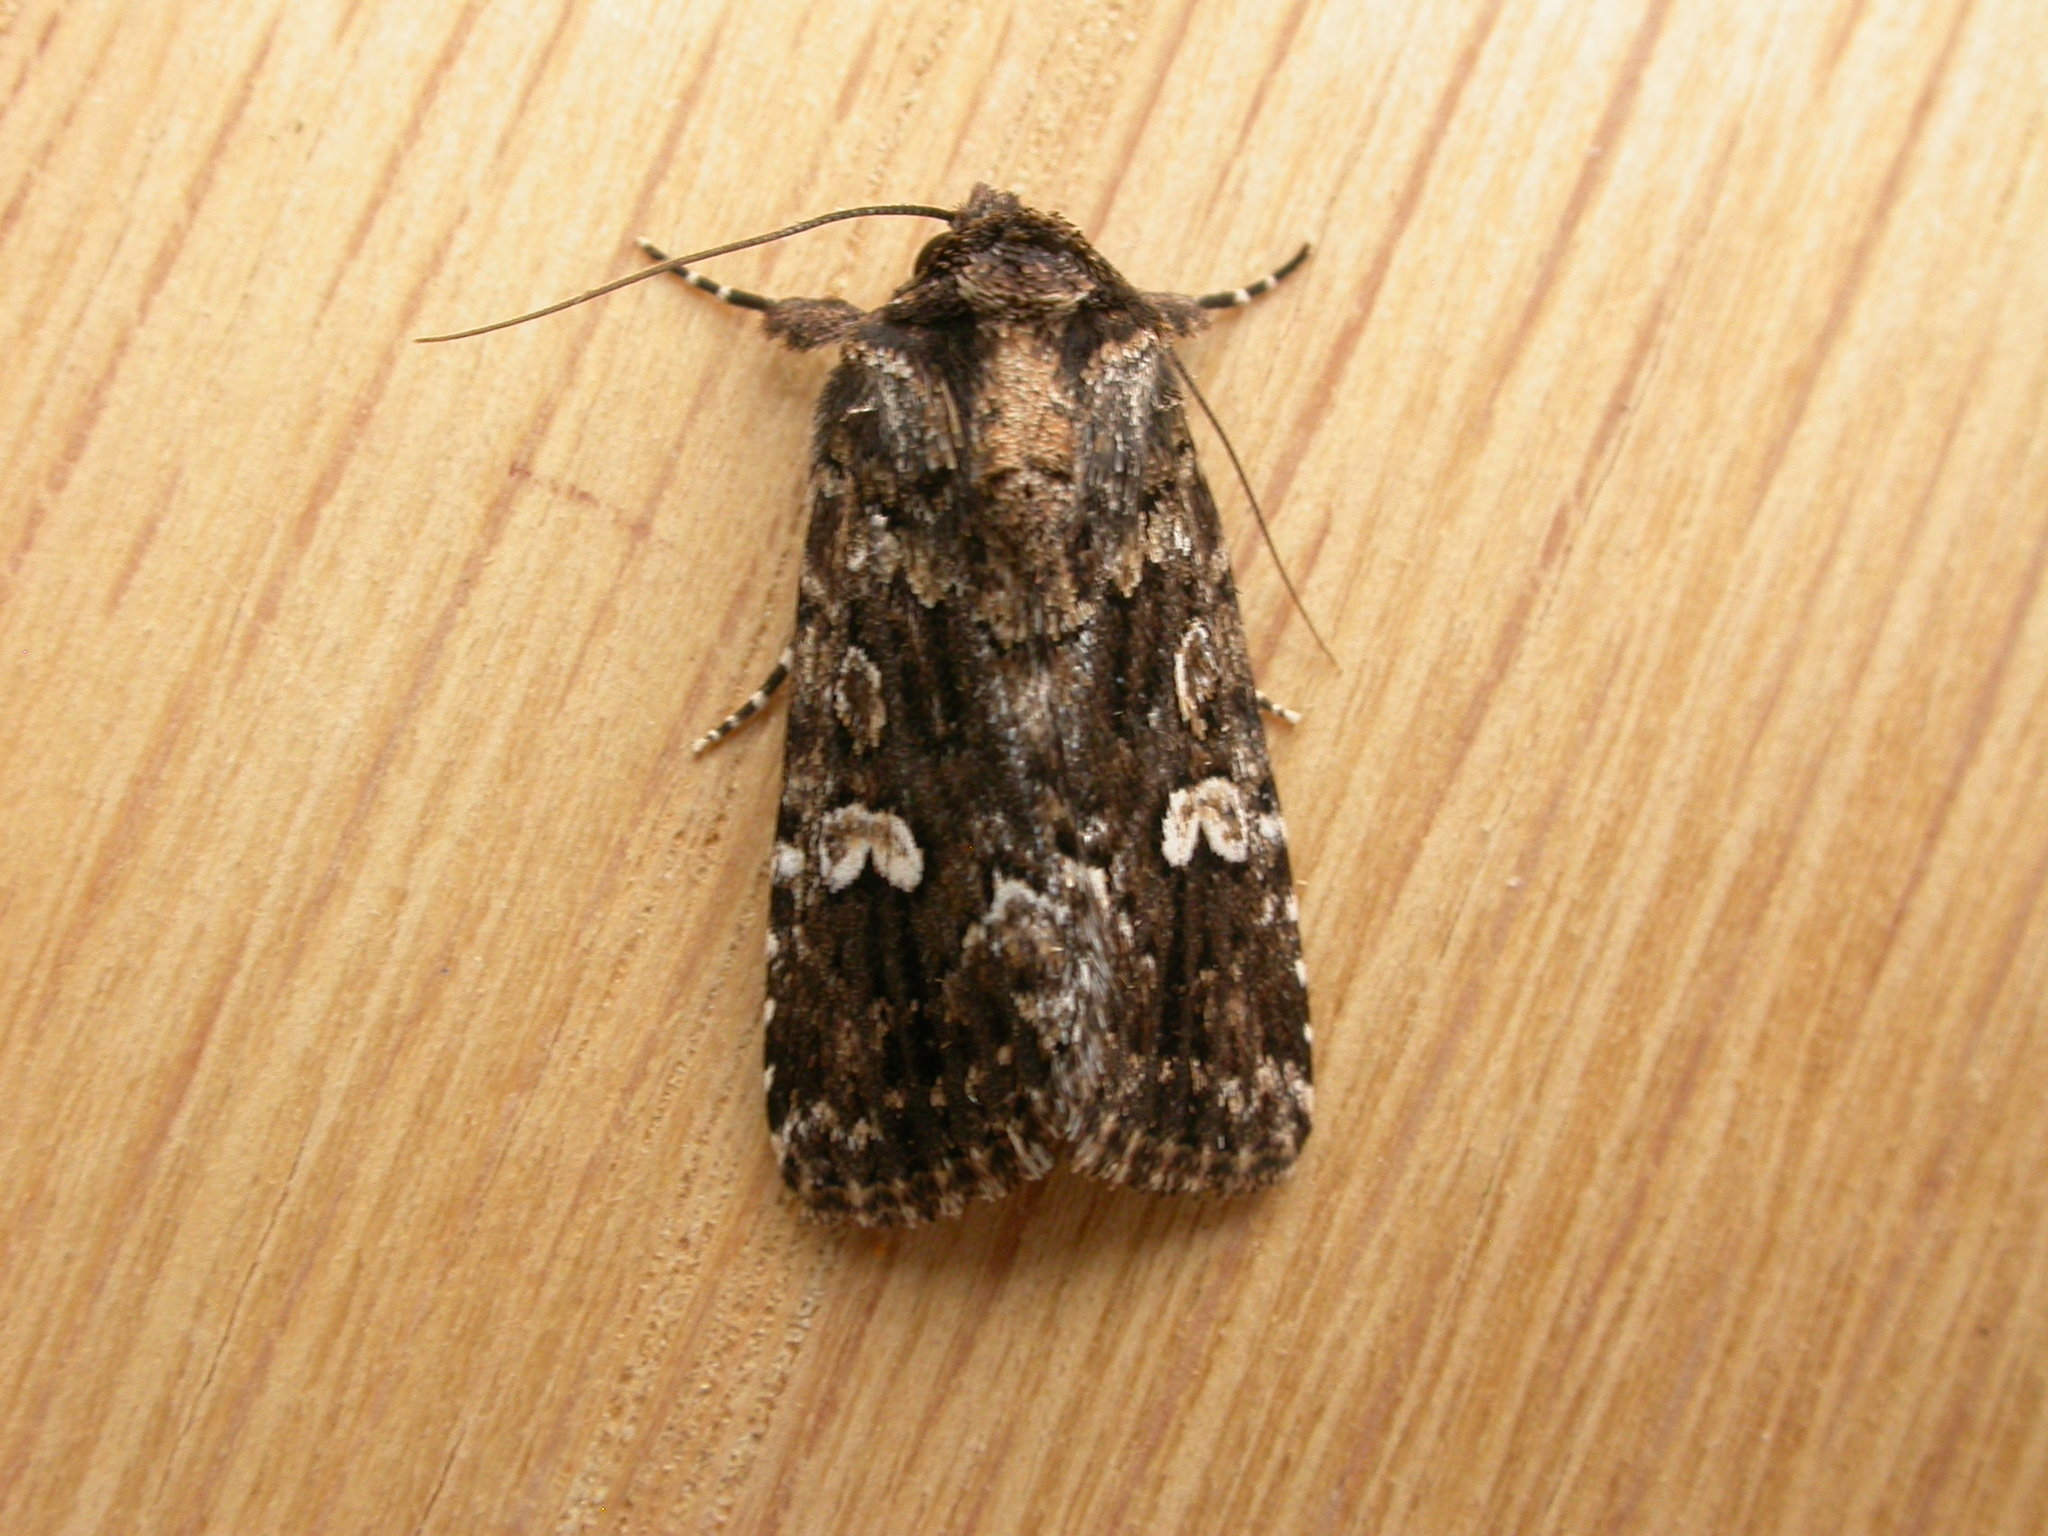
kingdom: Animalia
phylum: Arthropoda
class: Insecta
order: Lepidoptera
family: Noctuidae
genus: Ectopatria
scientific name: Ectopatria horologa
